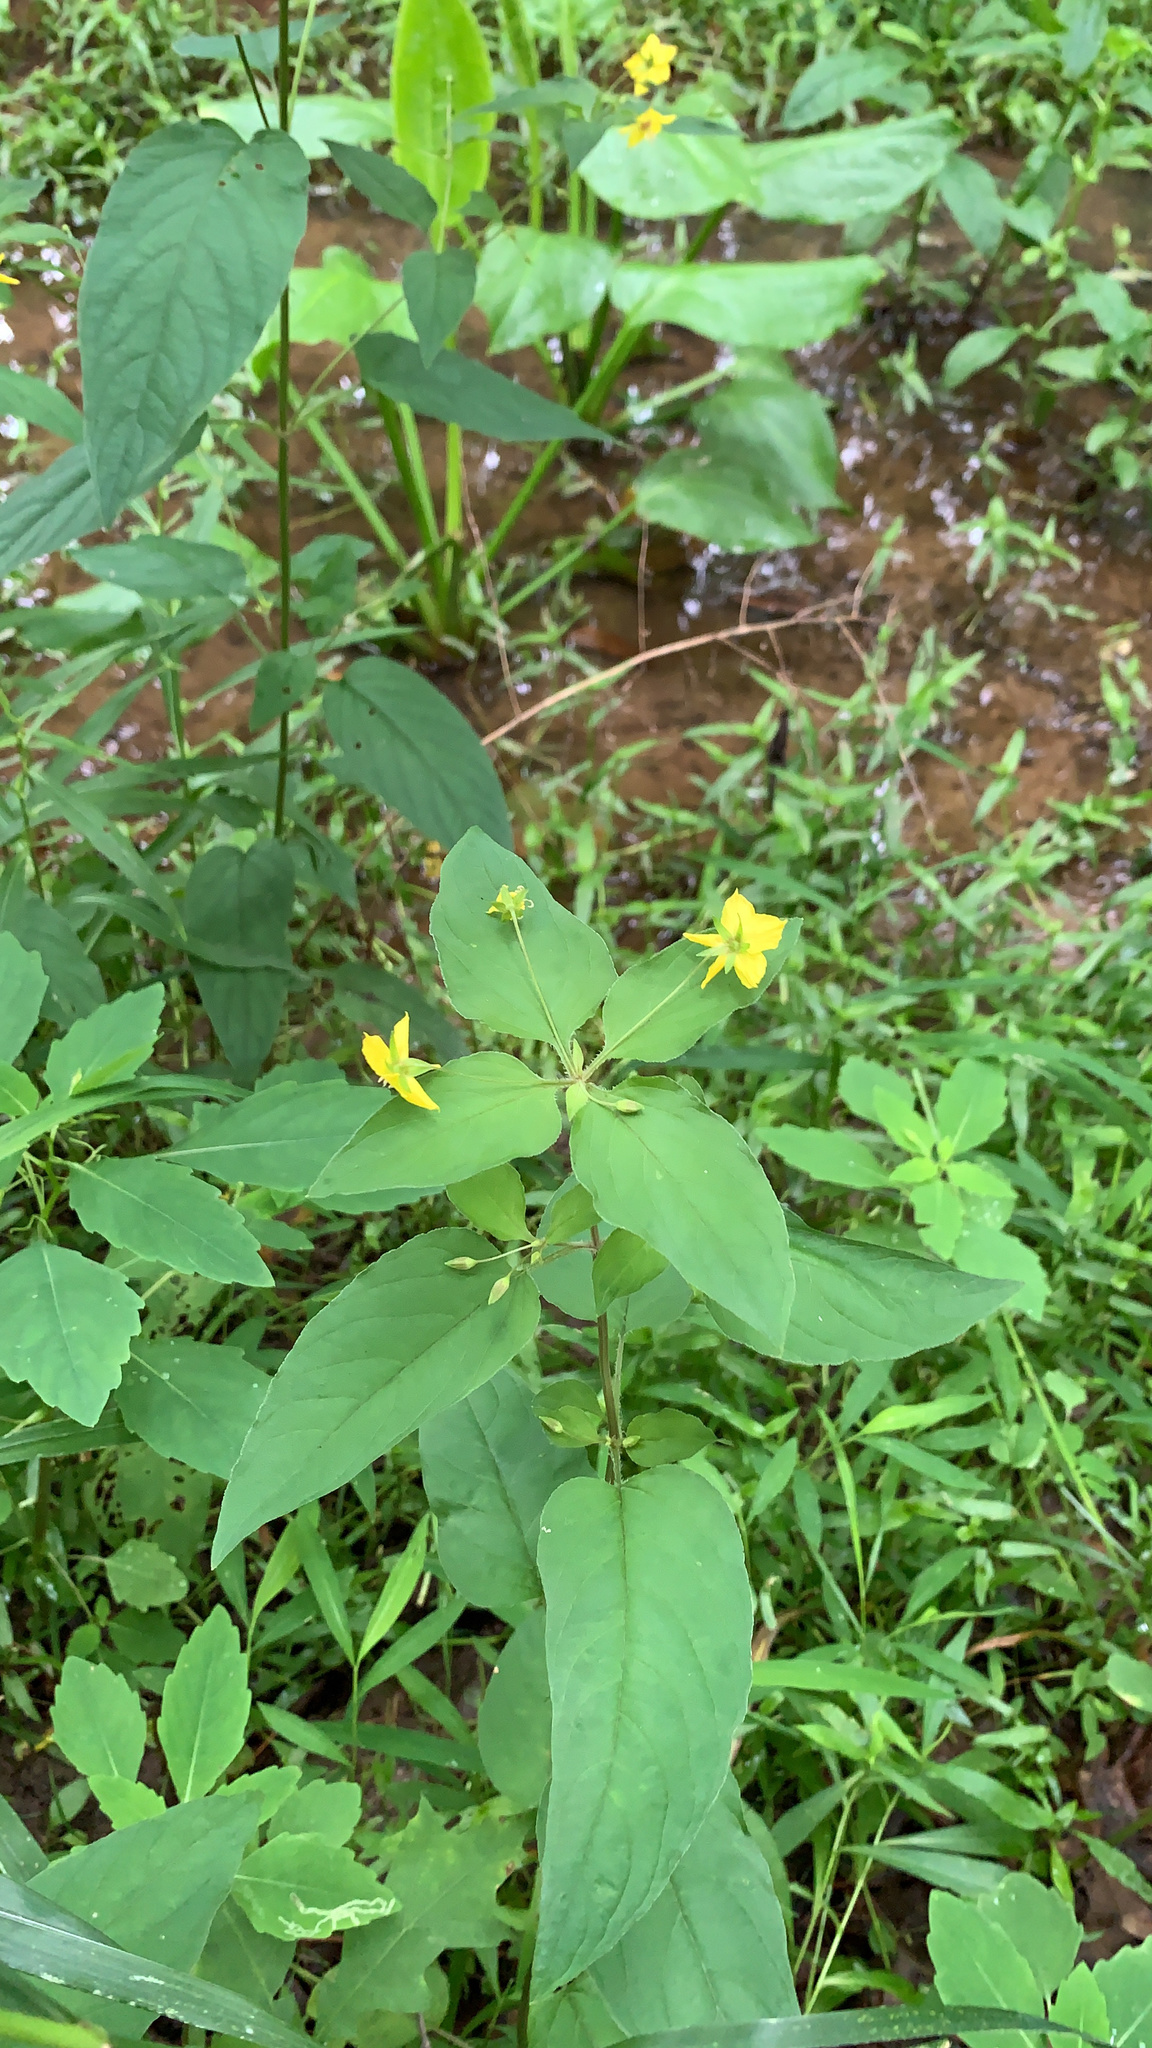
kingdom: Plantae
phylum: Tracheophyta
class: Magnoliopsida
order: Ericales
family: Primulaceae
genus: Lysimachia
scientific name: Lysimachia ciliata
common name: Fringed loosestrife
